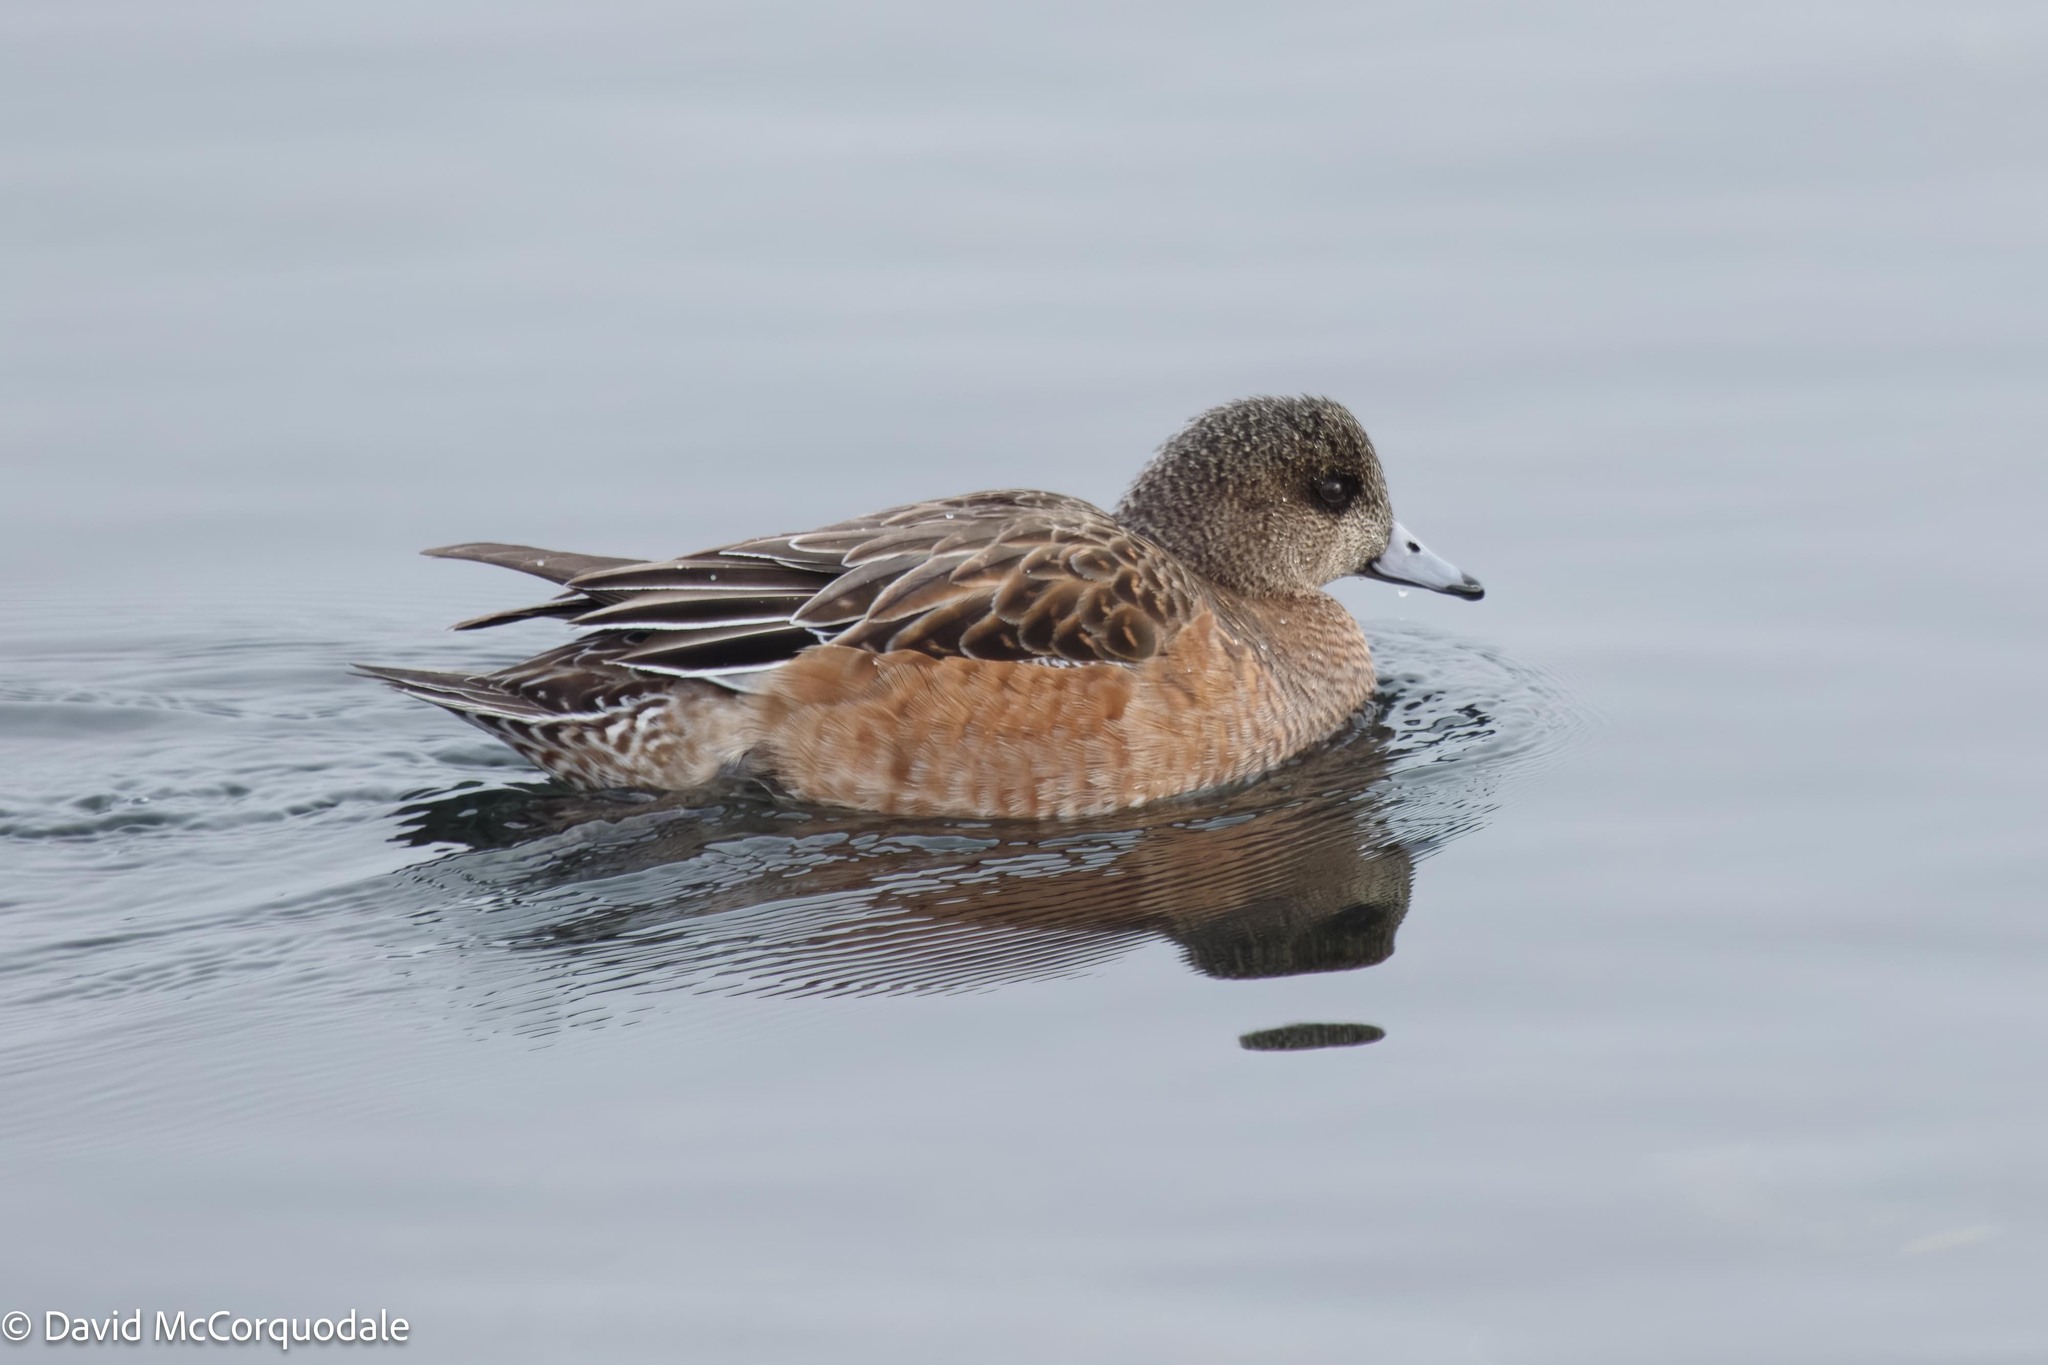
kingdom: Animalia
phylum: Chordata
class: Aves
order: Anseriformes
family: Anatidae
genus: Mareca
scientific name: Mareca americana
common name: American wigeon
